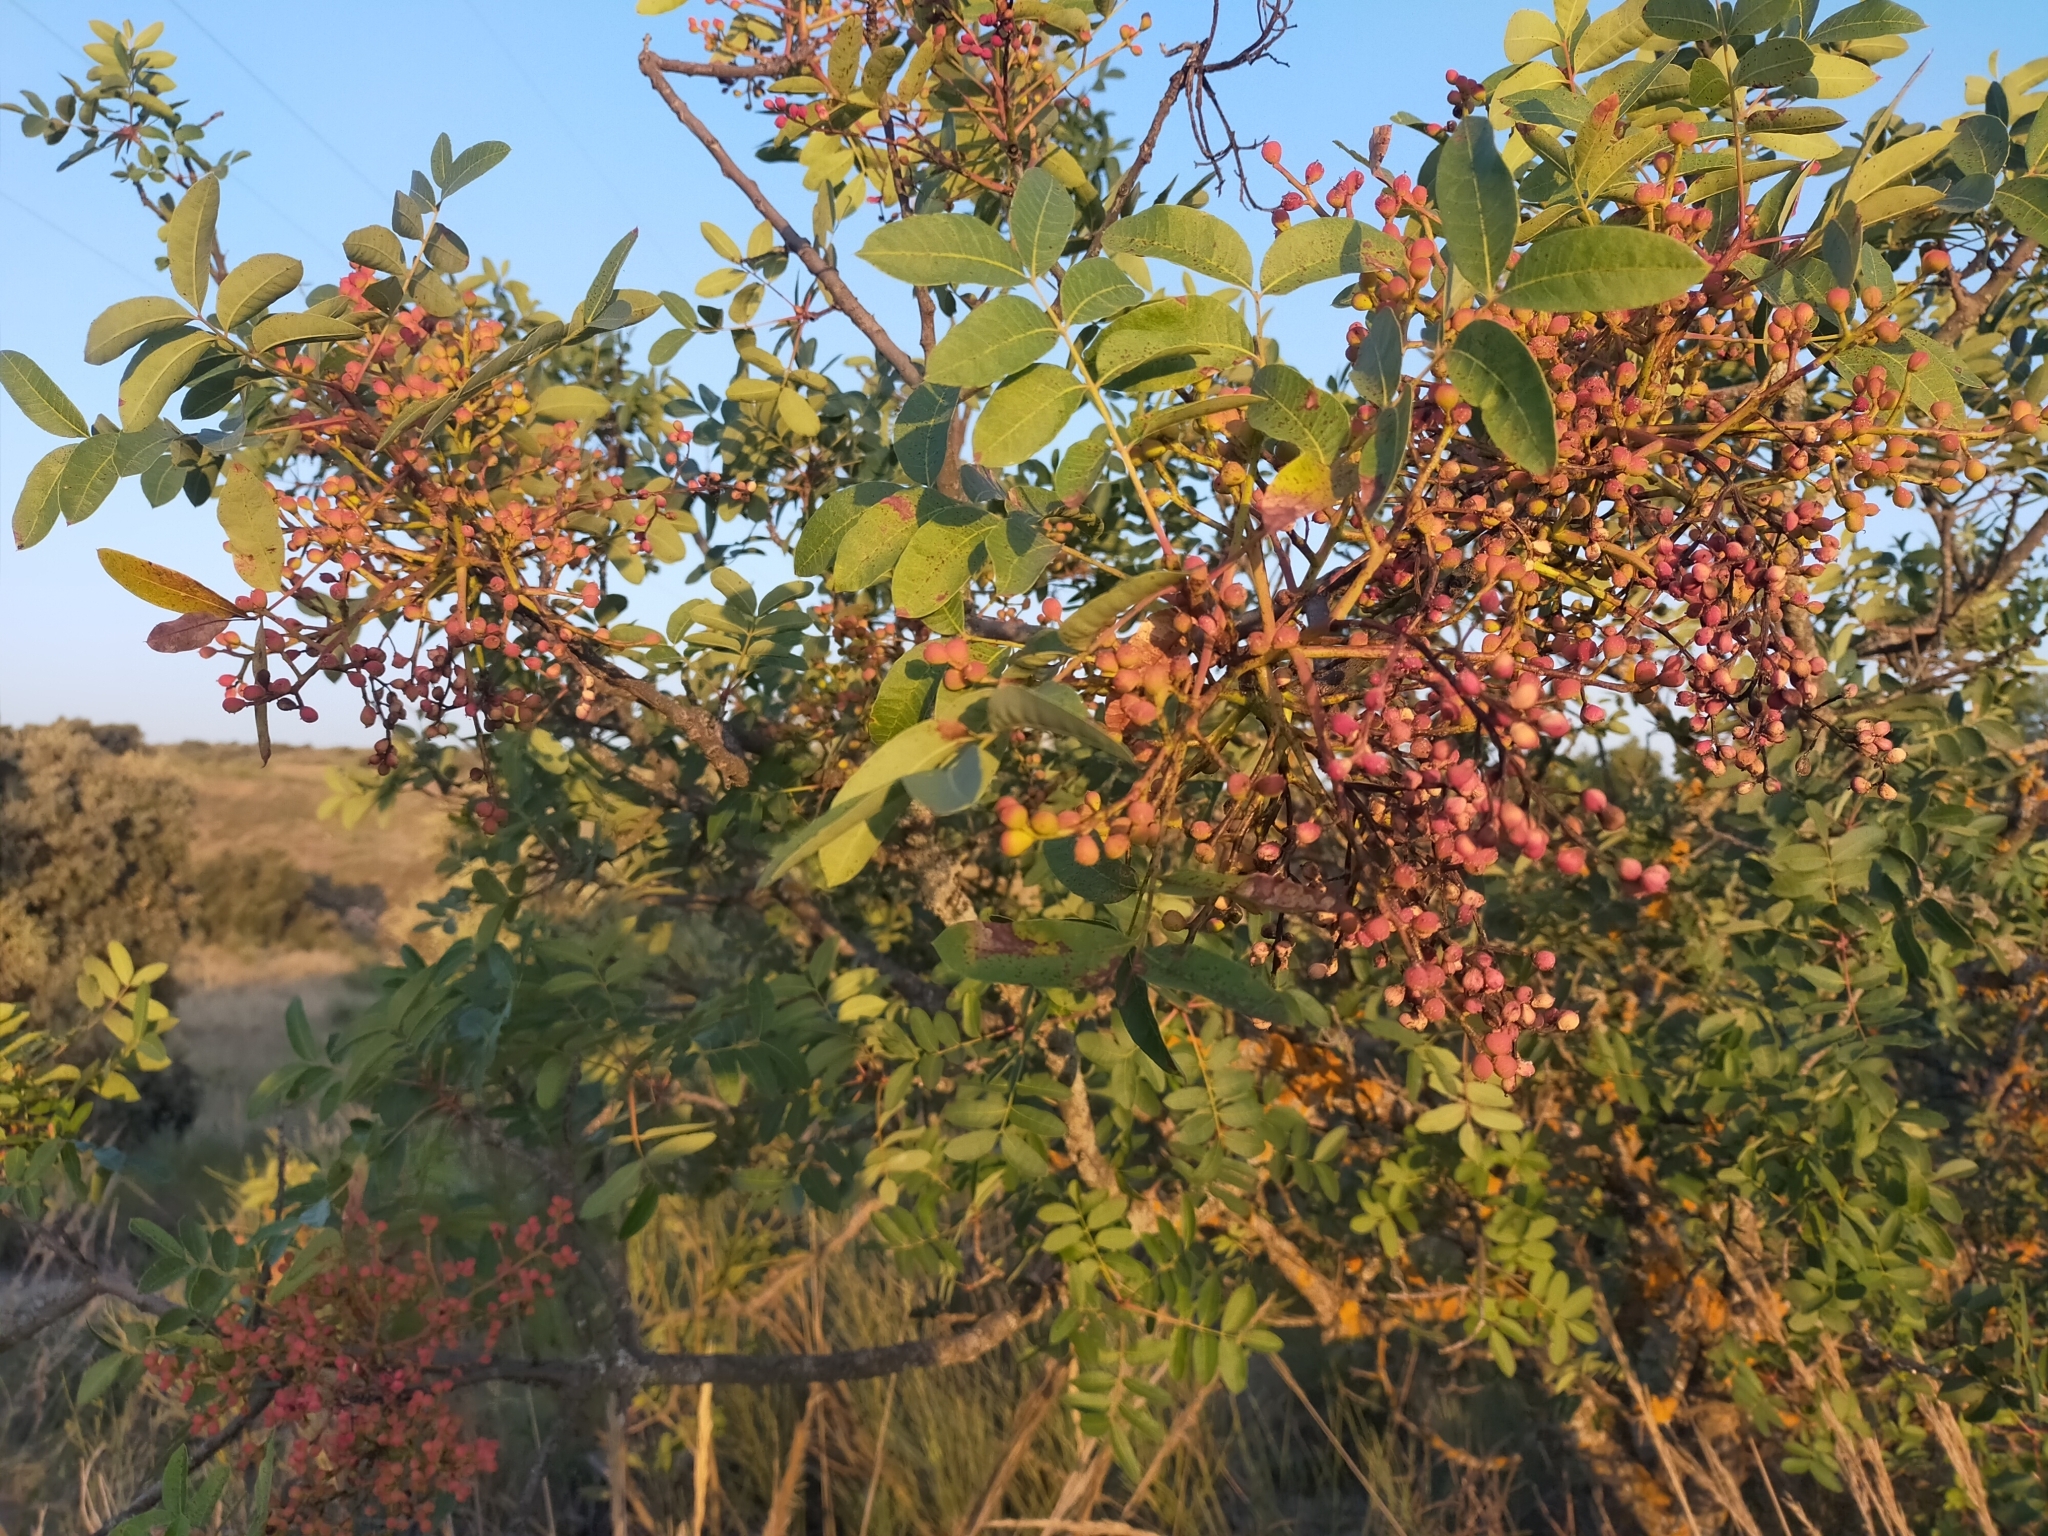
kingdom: Plantae
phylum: Tracheophyta
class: Magnoliopsida
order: Sapindales
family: Anacardiaceae
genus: Pistacia
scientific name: Pistacia terebinthus
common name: Terebinth
